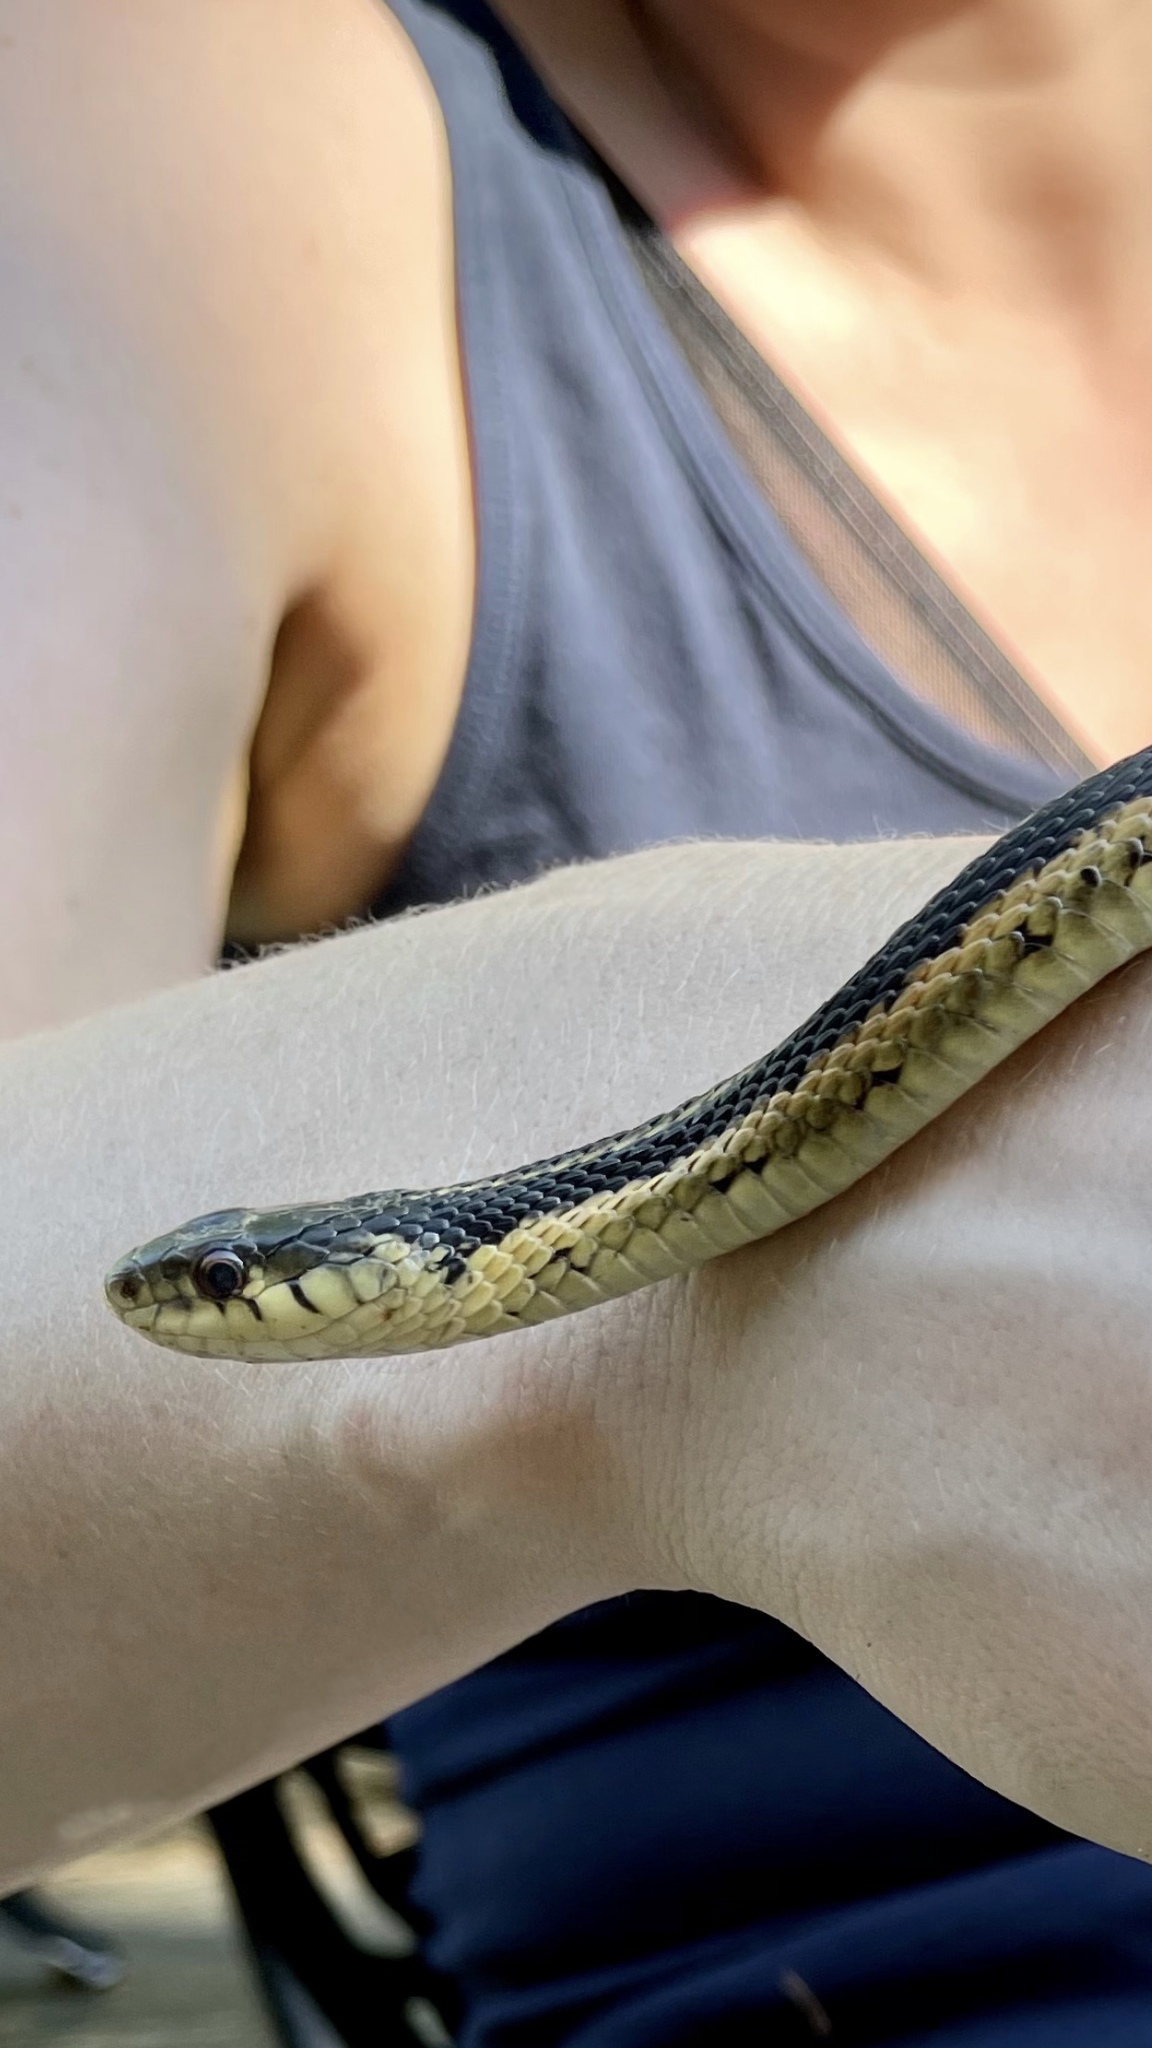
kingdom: Animalia
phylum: Chordata
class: Squamata
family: Colubridae
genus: Thamnophis
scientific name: Thamnophis sirtalis
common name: Common garter snake
